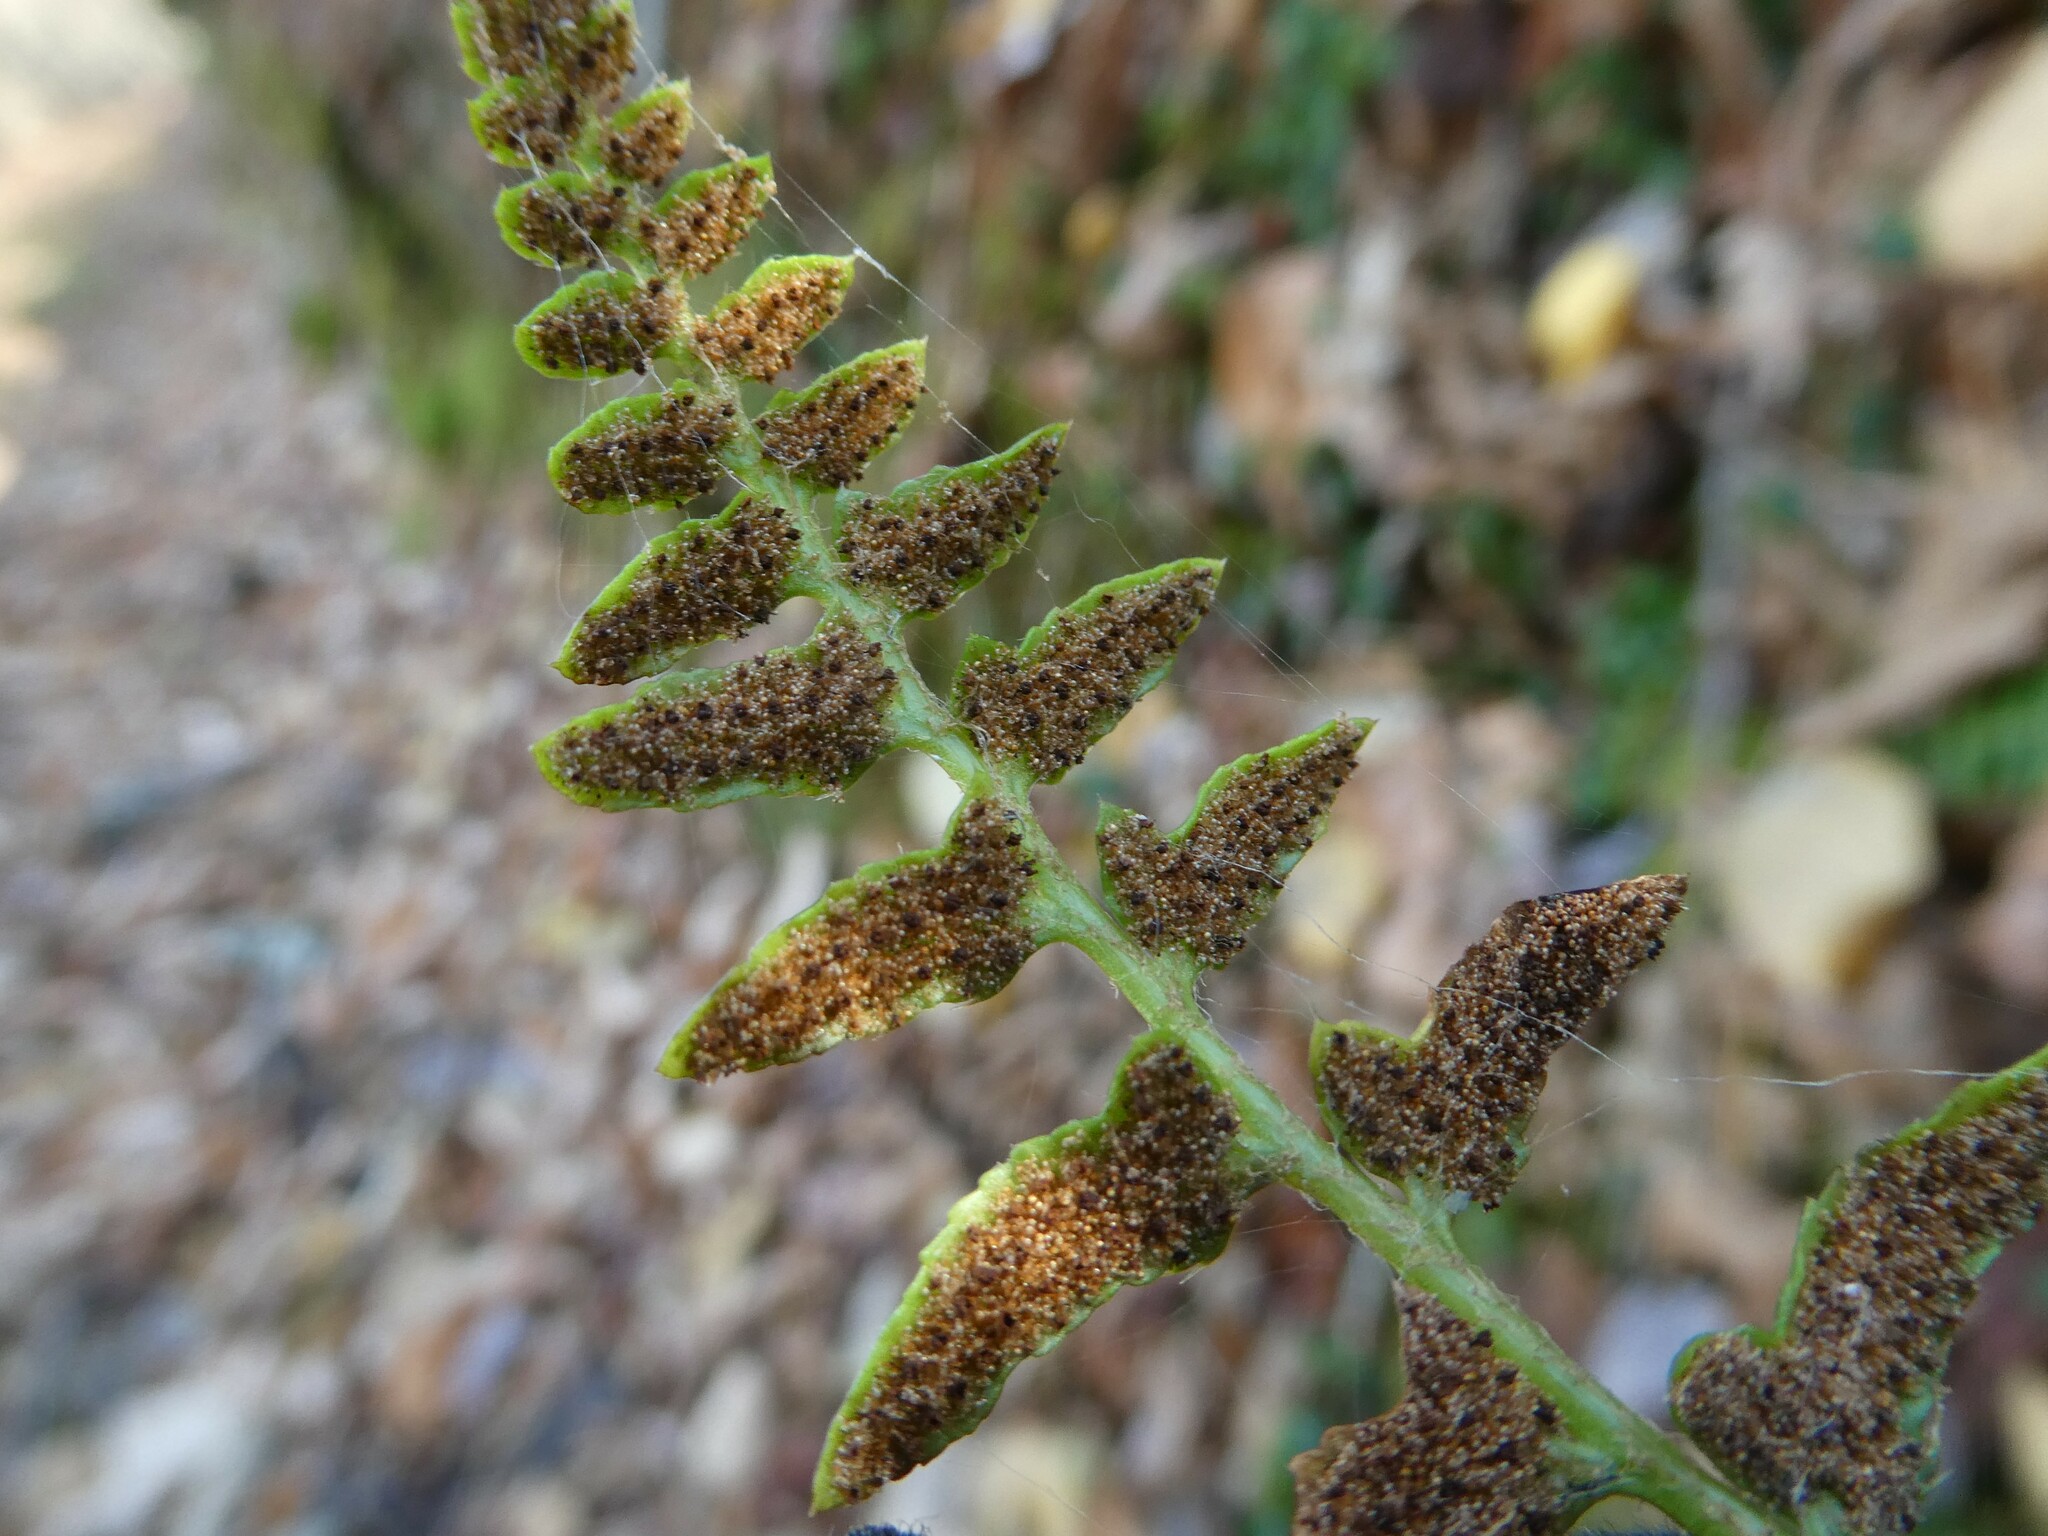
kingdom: Plantae
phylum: Tracheophyta
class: Polypodiopsida
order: Polypodiales
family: Dryopteridaceae
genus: Polystichum
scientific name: Polystichum acrostichoides
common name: Christmas fern
